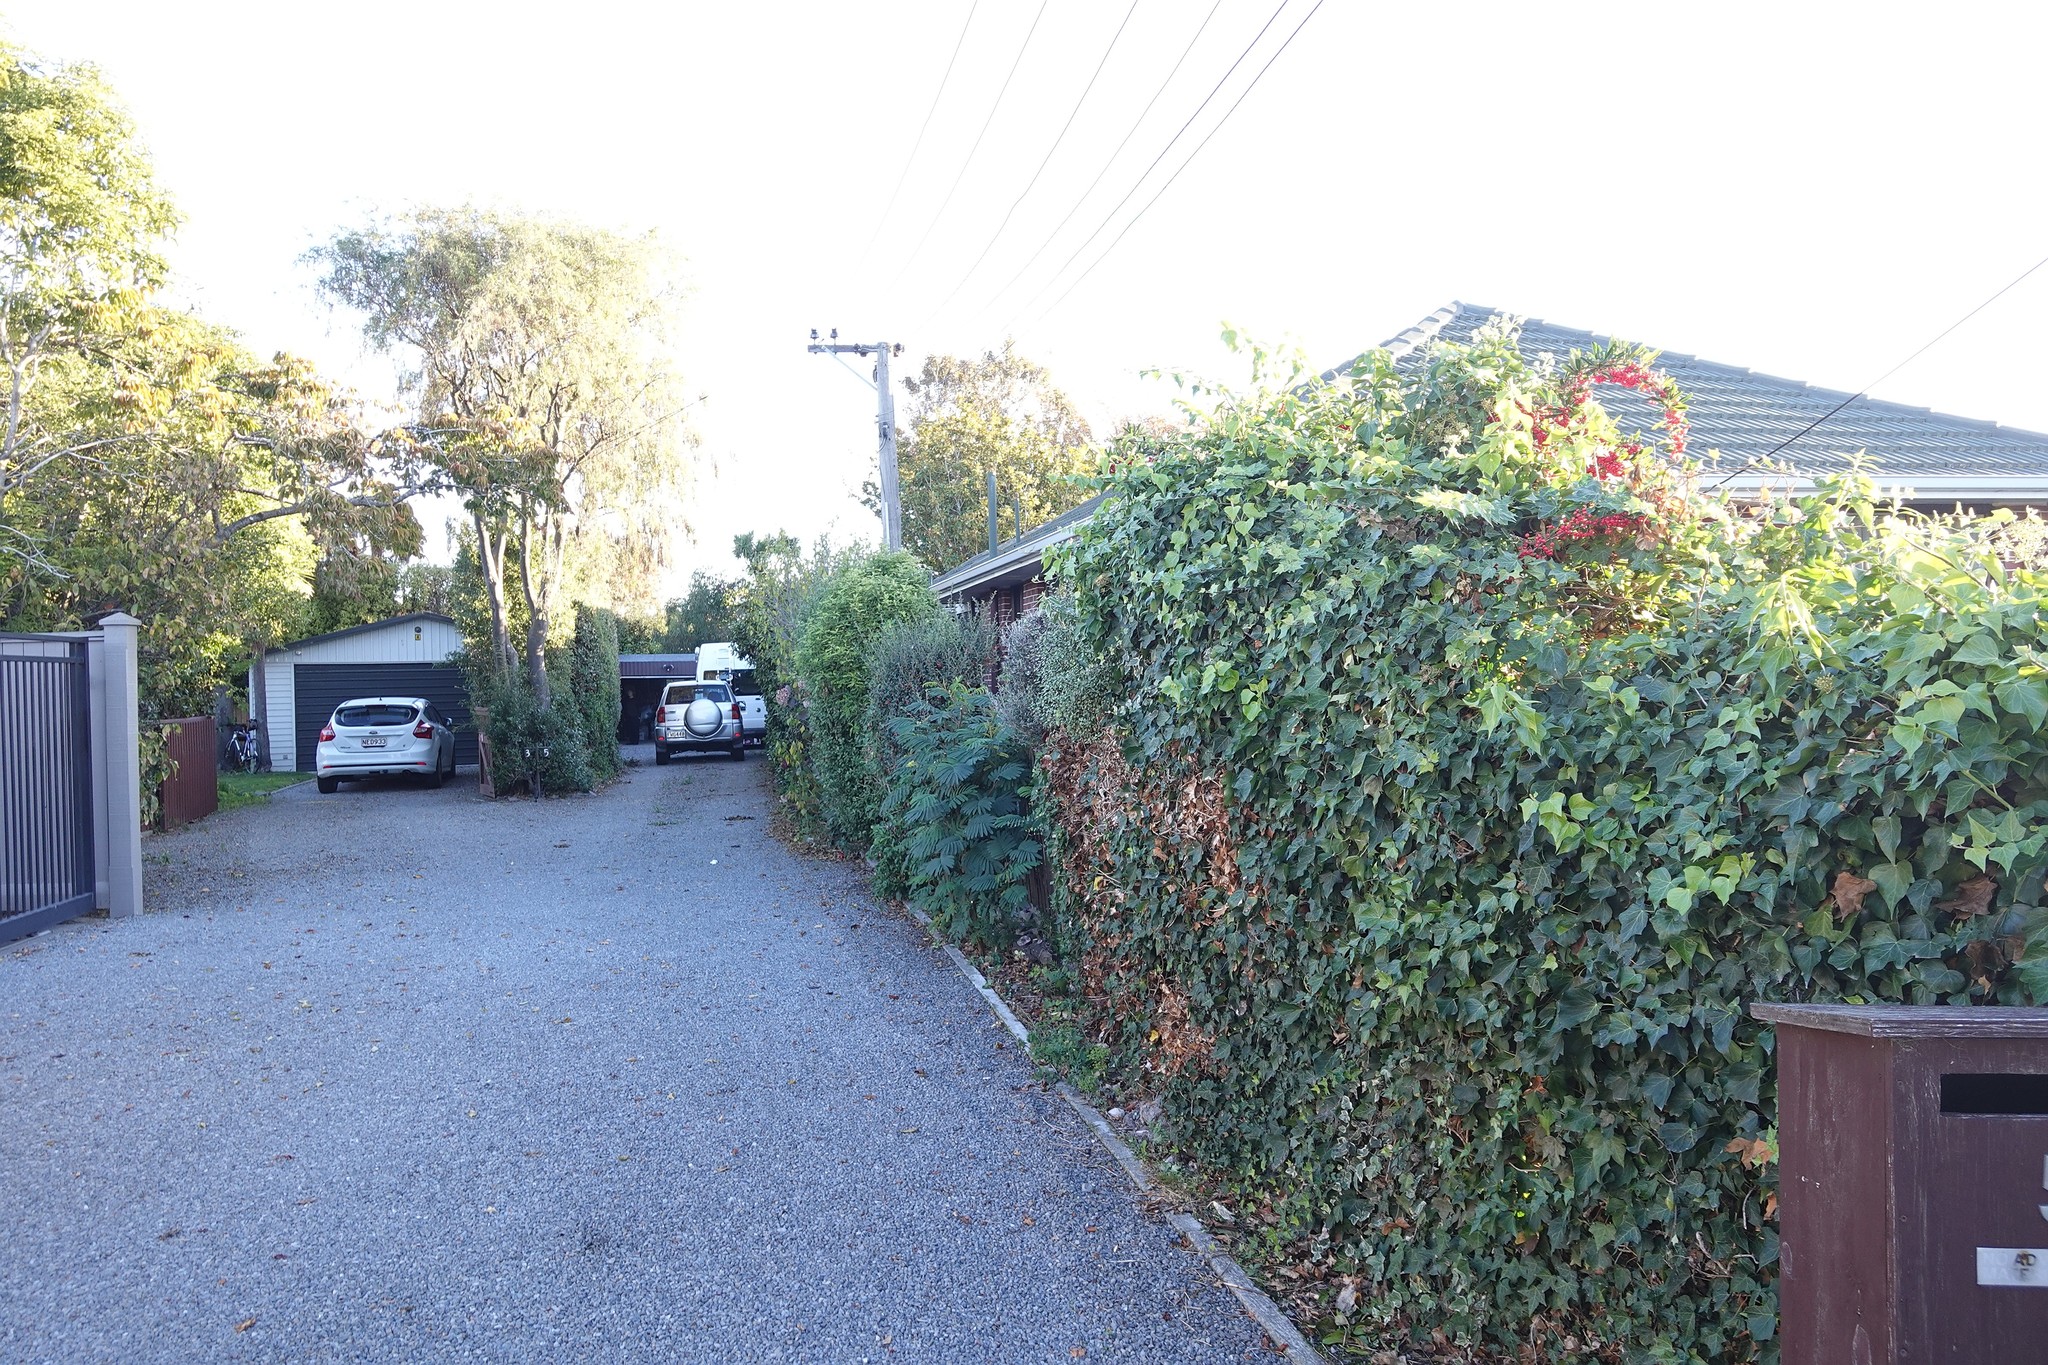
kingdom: Plantae
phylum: Tracheophyta
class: Magnoliopsida
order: Fabales
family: Fabaceae
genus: Paraserianthes
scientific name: Paraserianthes lophantha
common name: Plume albizia
